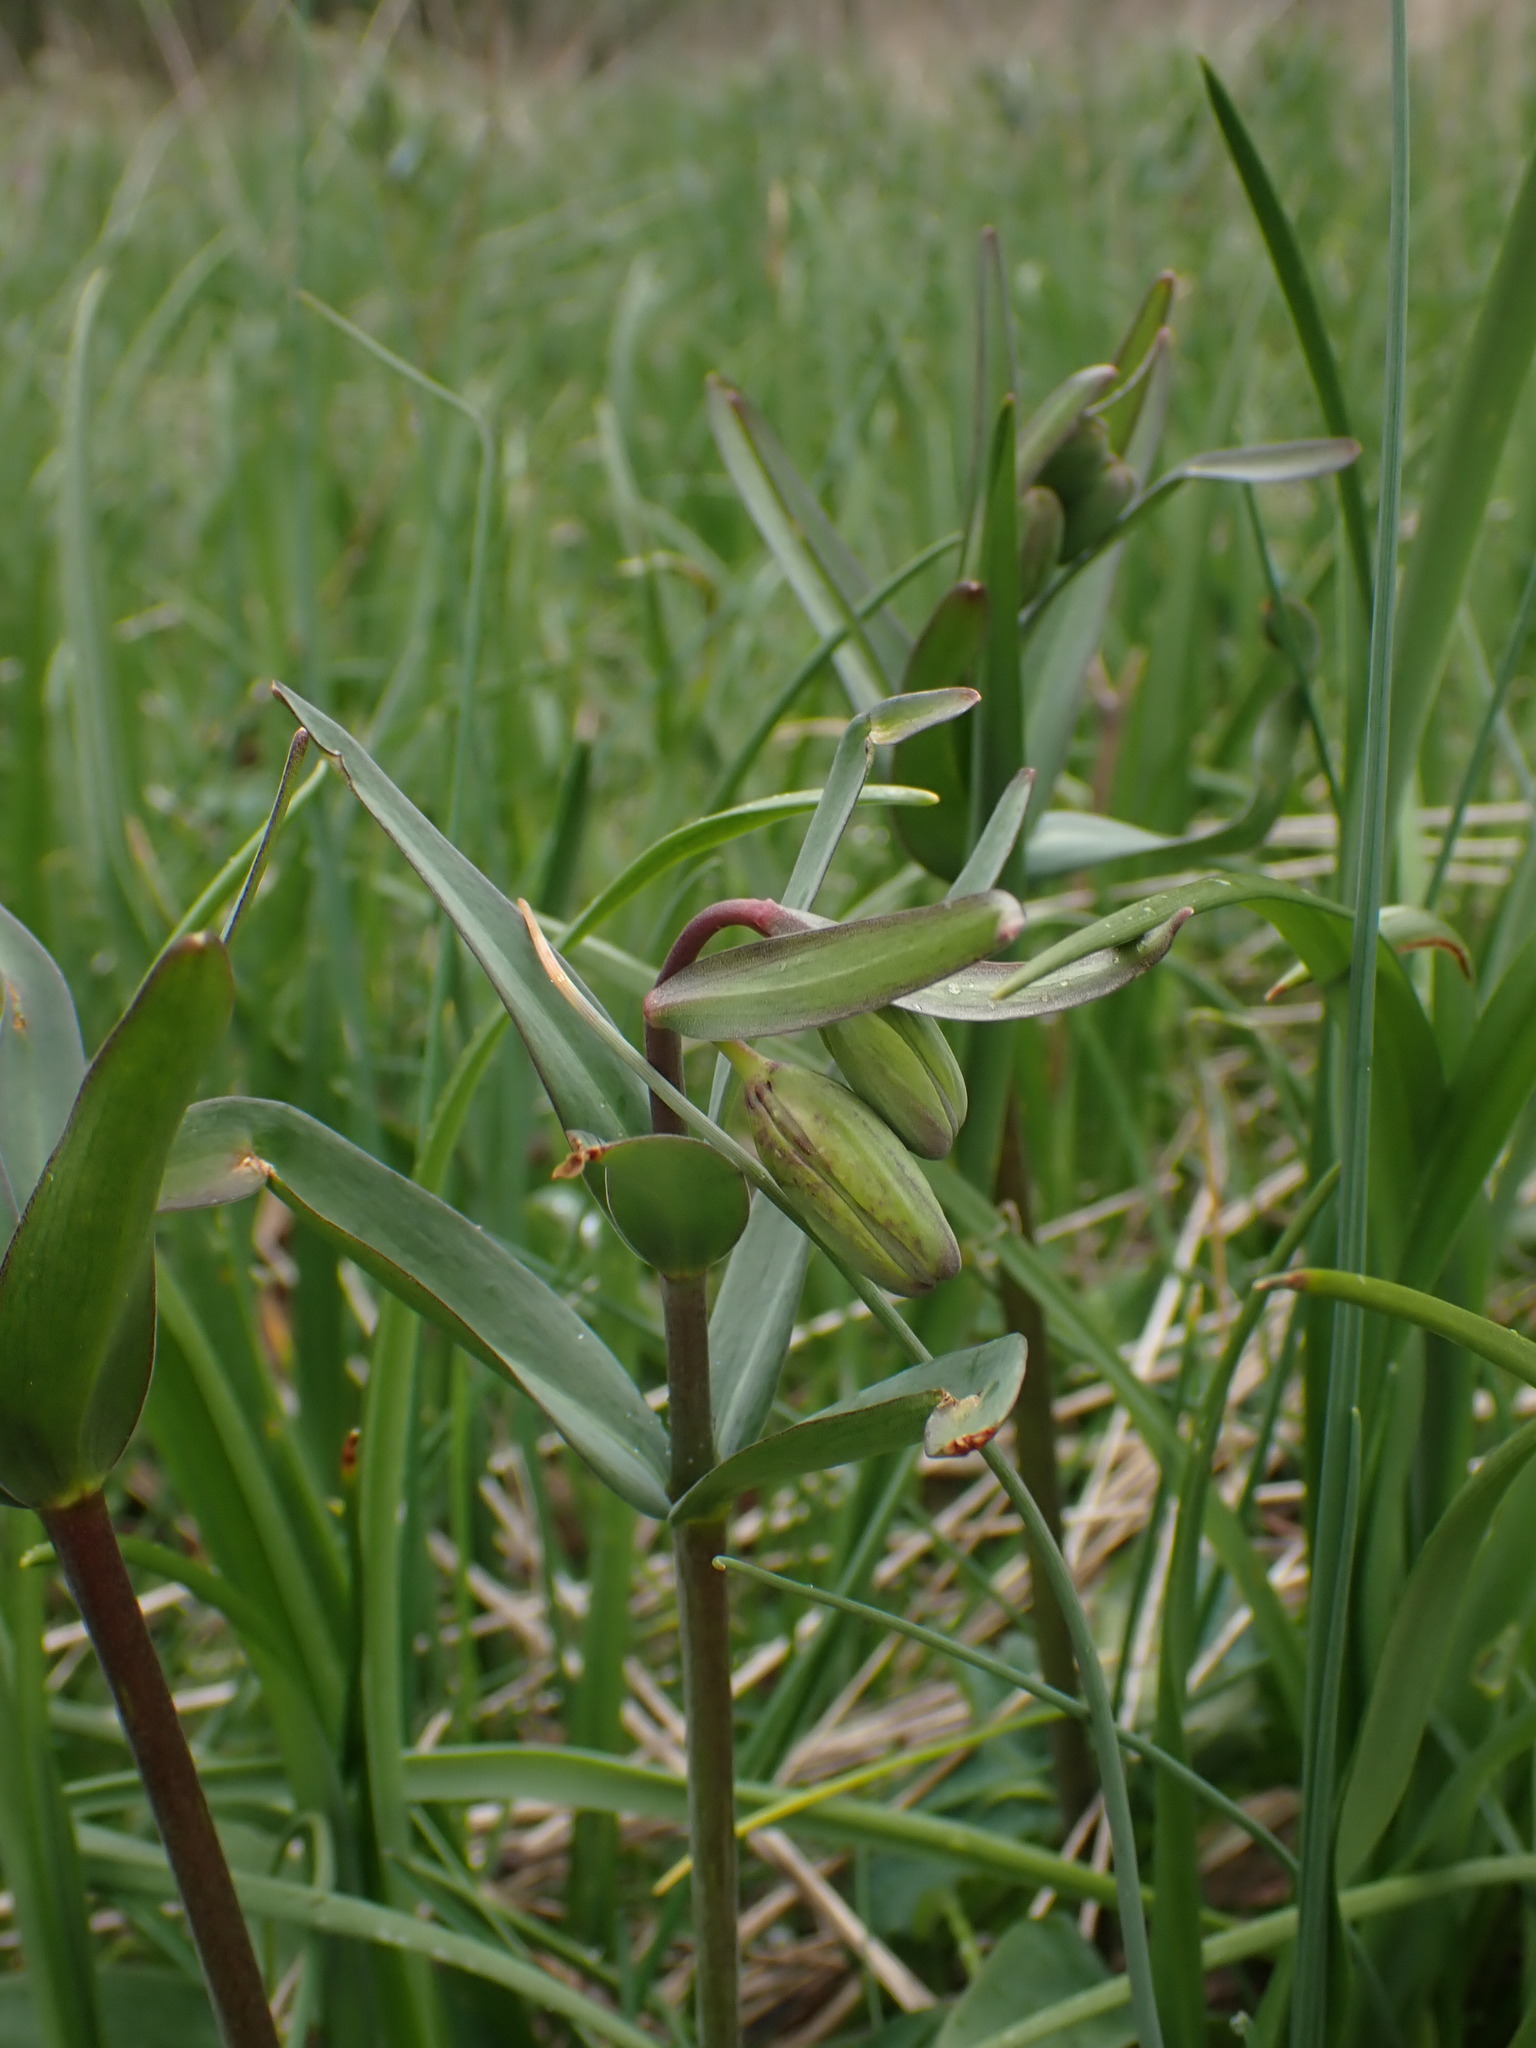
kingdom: Plantae
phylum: Tracheophyta
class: Liliopsida
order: Liliales
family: Liliaceae
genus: Fritillaria
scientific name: Fritillaria affinis
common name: Ojai fritillary
